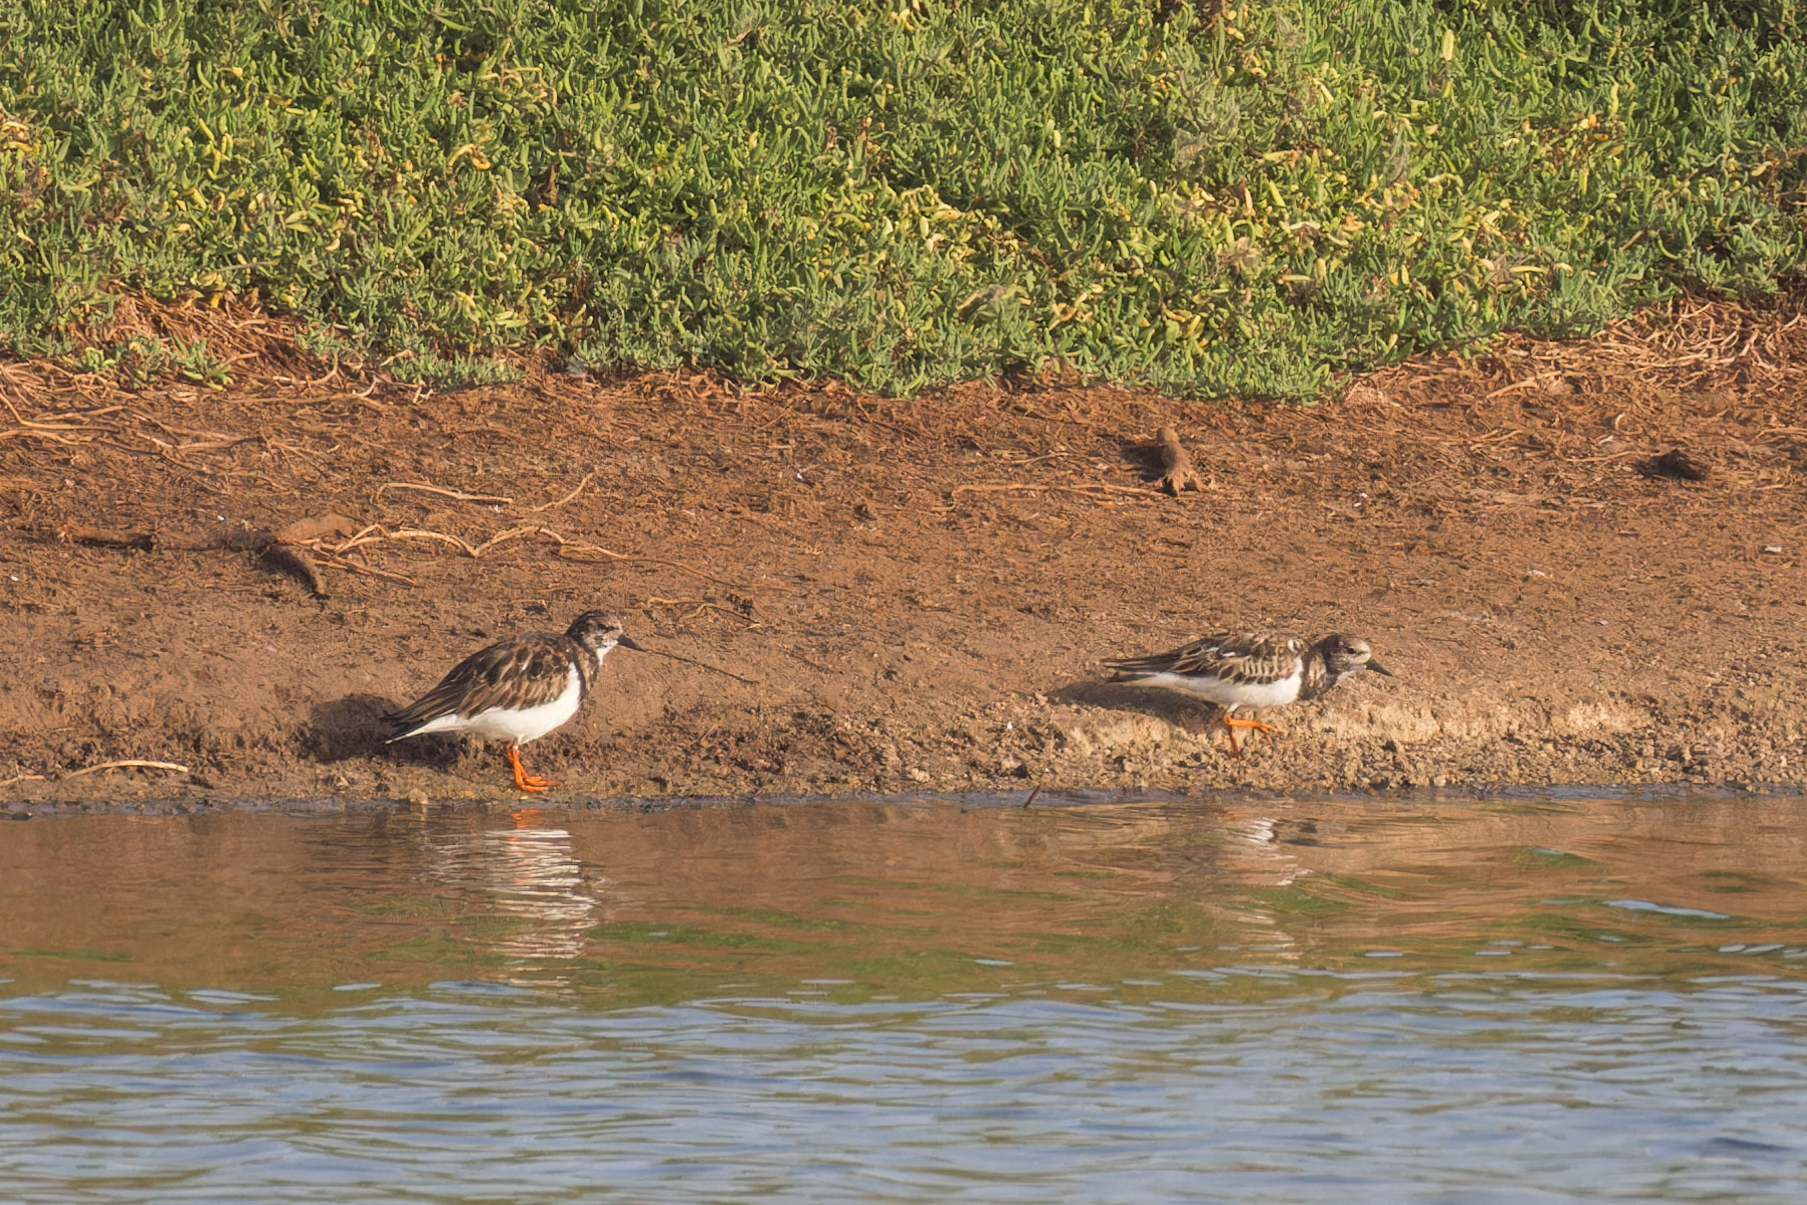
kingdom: Animalia
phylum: Chordata
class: Aves
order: Charadriiformes
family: Scolopacidae
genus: Arenaria
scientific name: Arenaria interpres
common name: Ruddy turnstone
